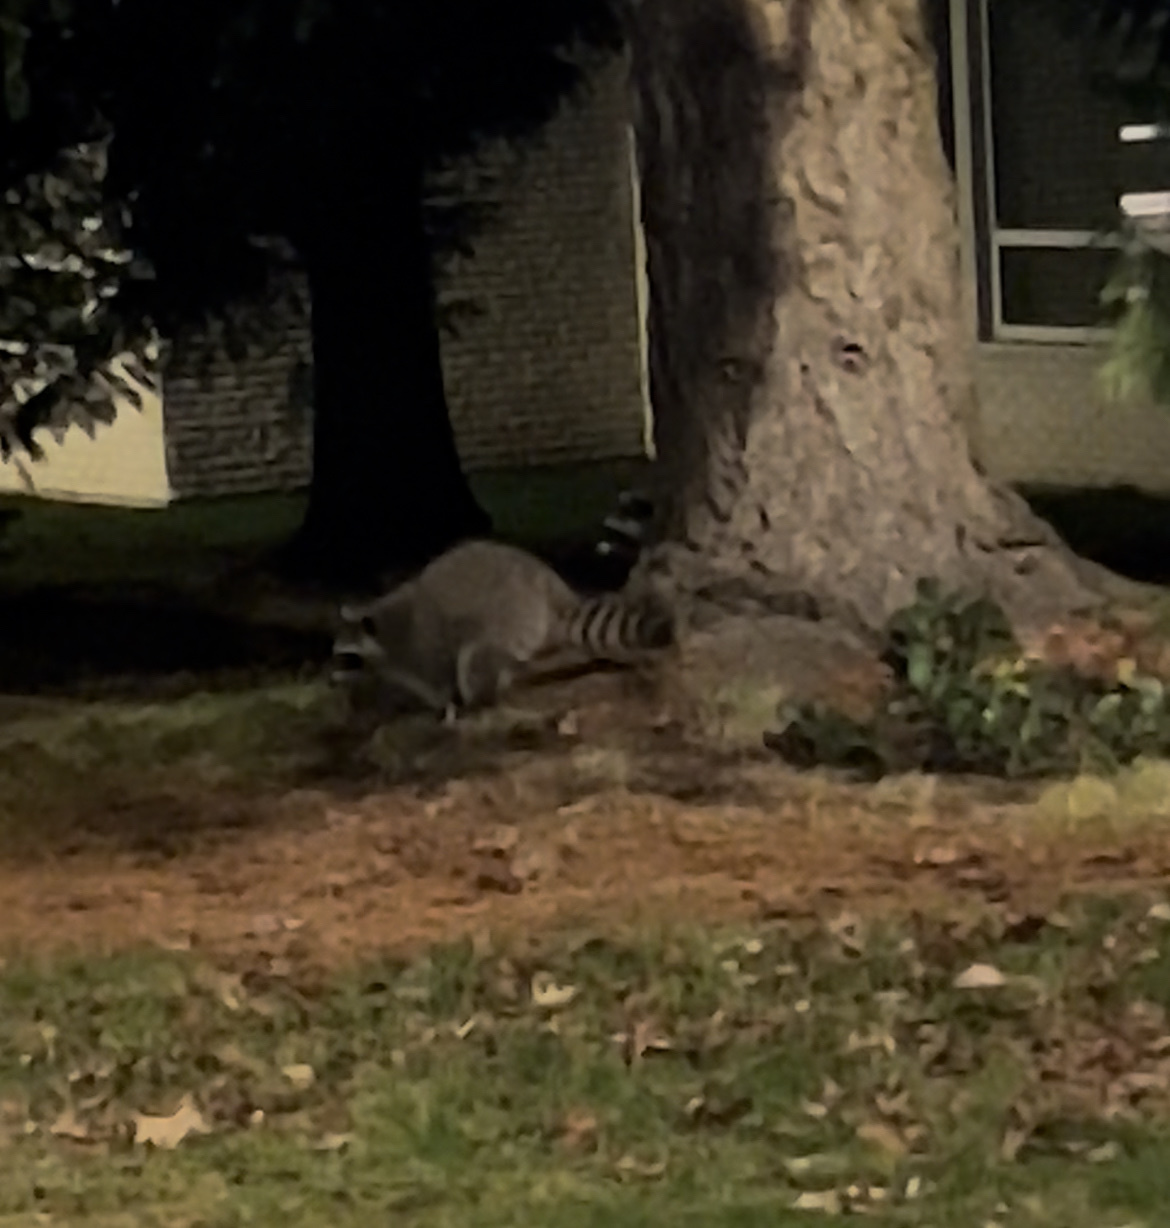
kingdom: Animalia
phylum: Chordata
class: Mammalia
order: Carnivora
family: Procyonidae
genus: Procyon
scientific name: Procyon lotor
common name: Raccoon
